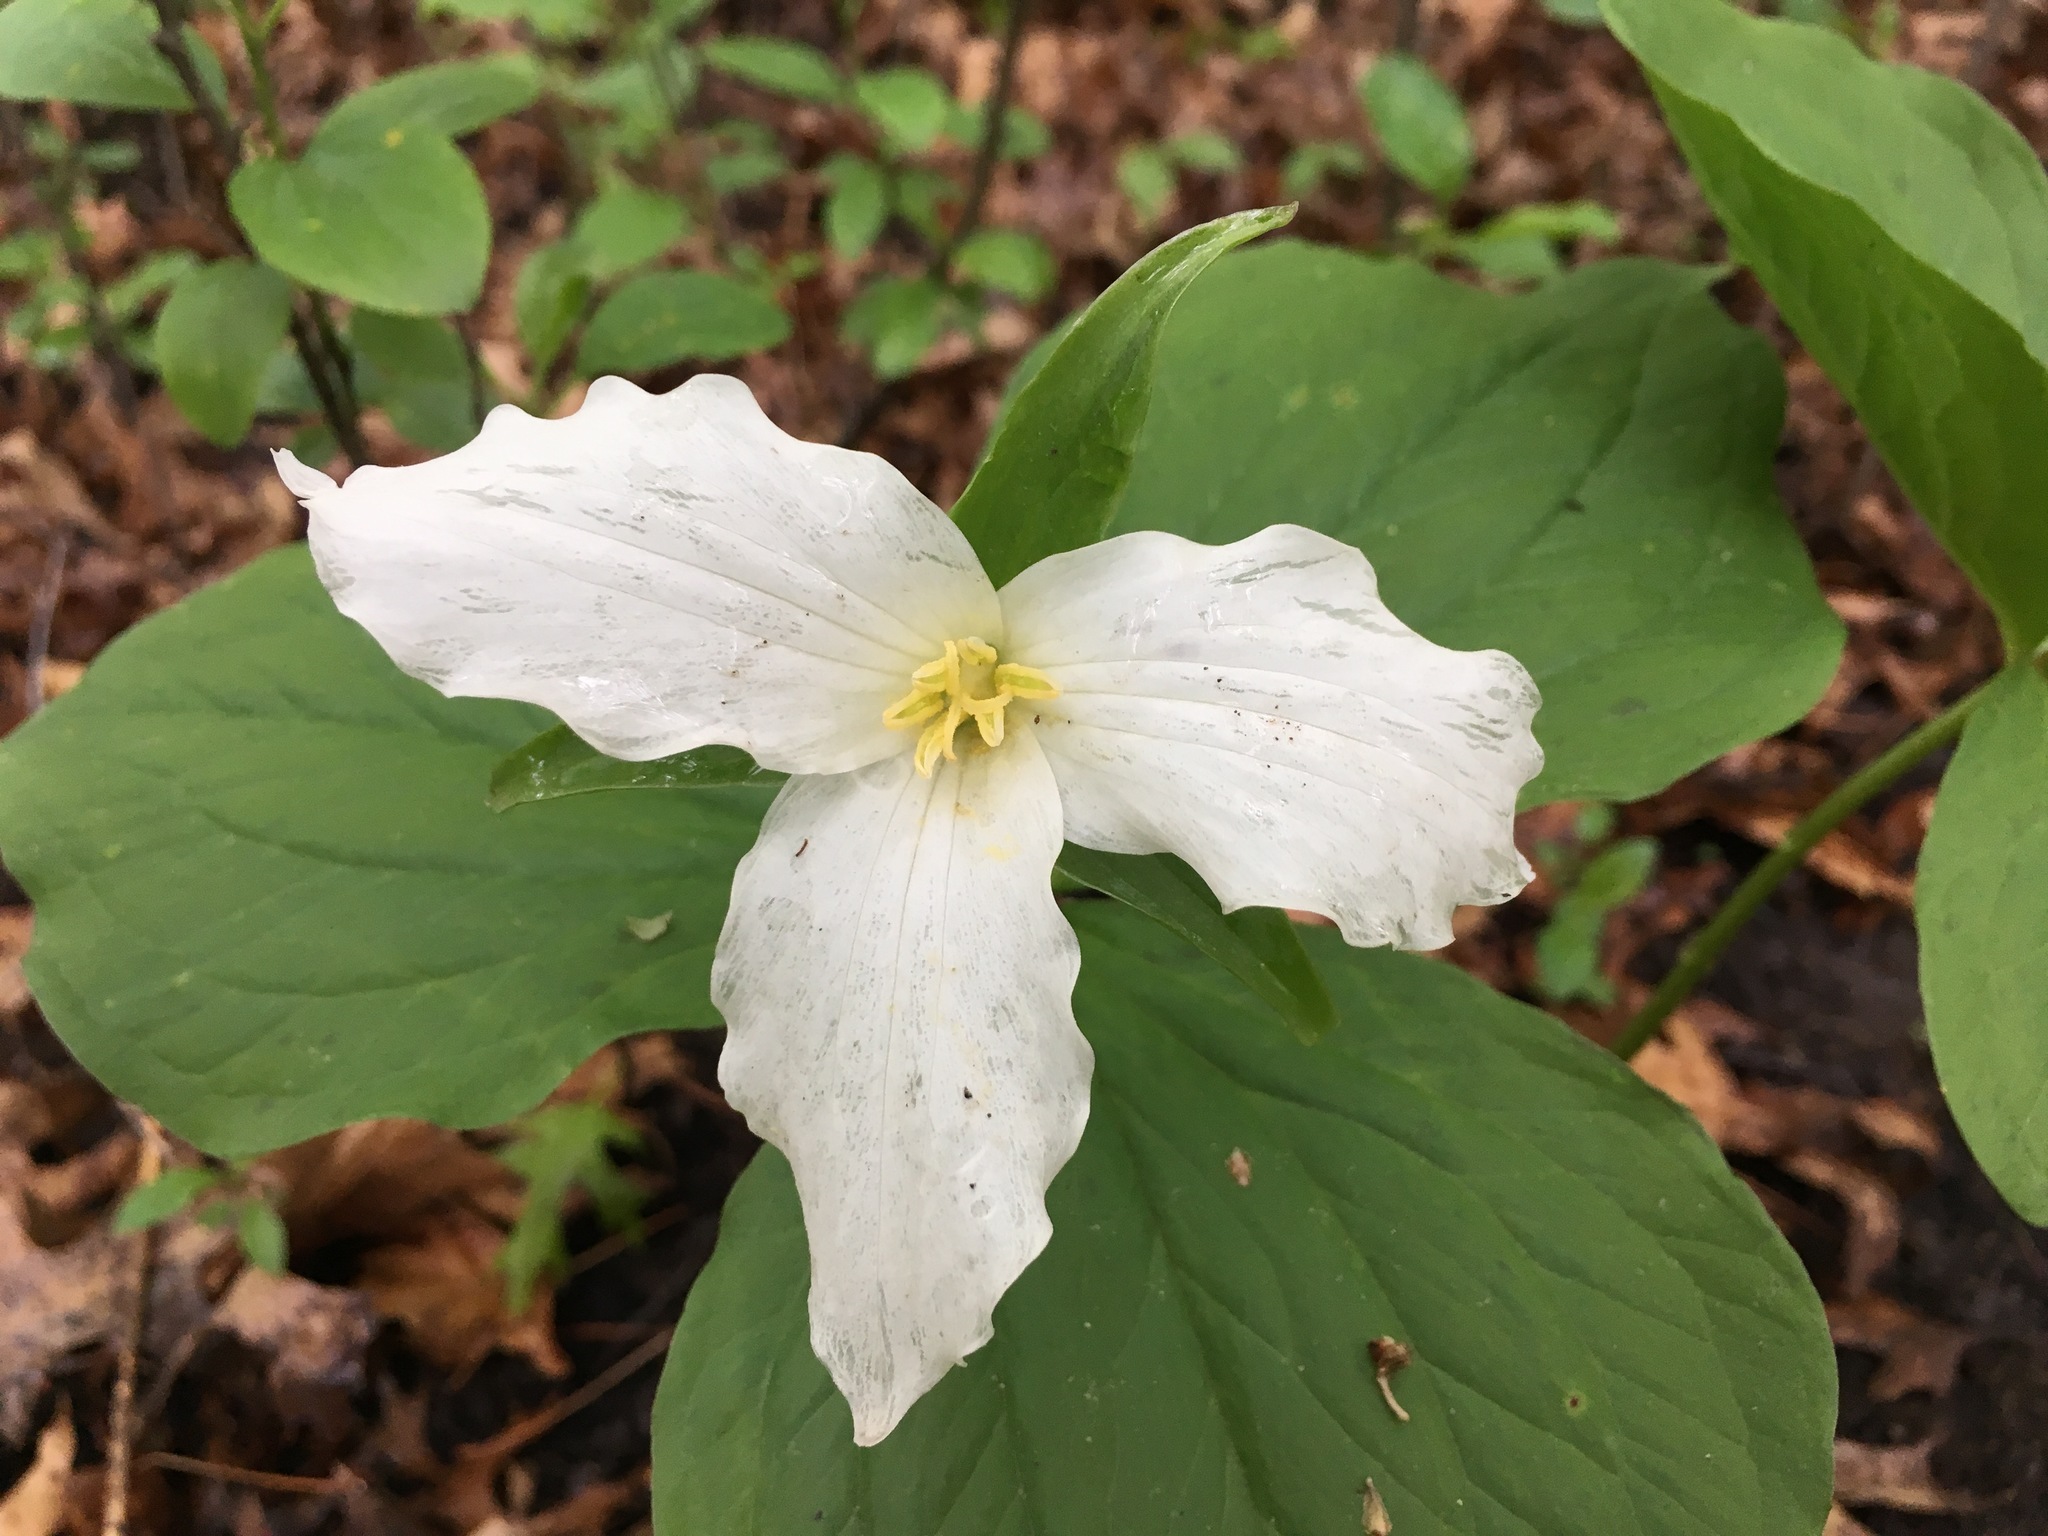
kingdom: Plantae
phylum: Tracheophyta
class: Liliopsida
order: Liliales
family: Melanthiaceae
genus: Trillium
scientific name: Trillium grandiflorum
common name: Great white trillium
